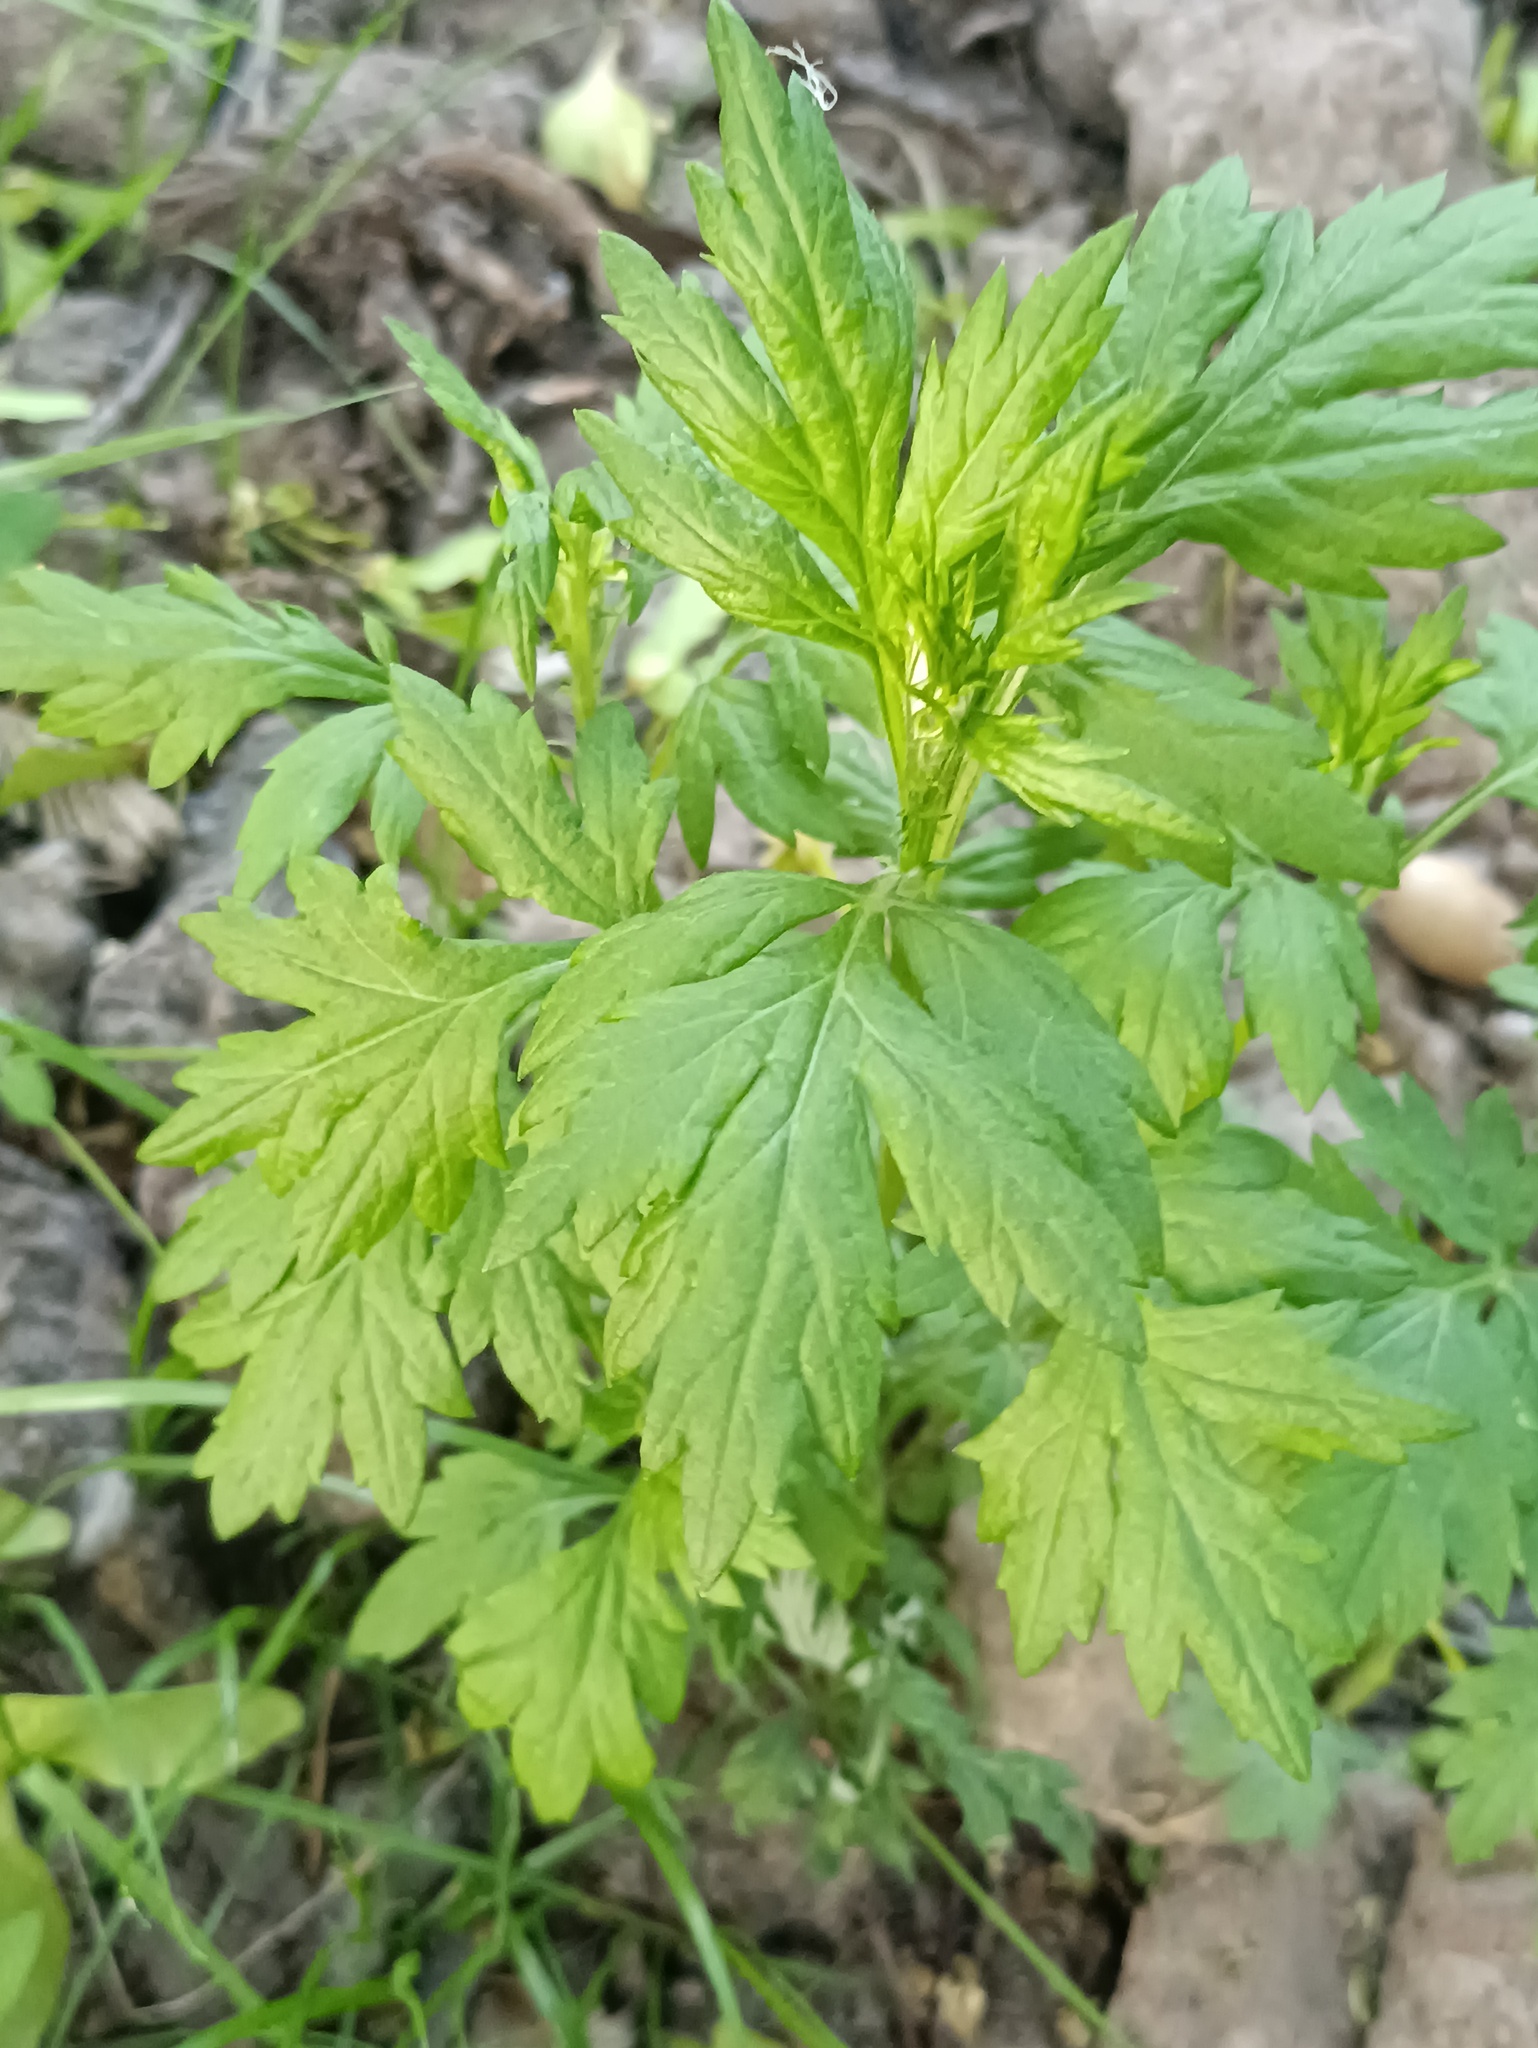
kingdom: Plantae
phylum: Tracheophyta
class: Magnoliopsida
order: Asterales
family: Asteraceae
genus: Artemisia
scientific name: Artemisia vulgaris
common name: Mugwort
